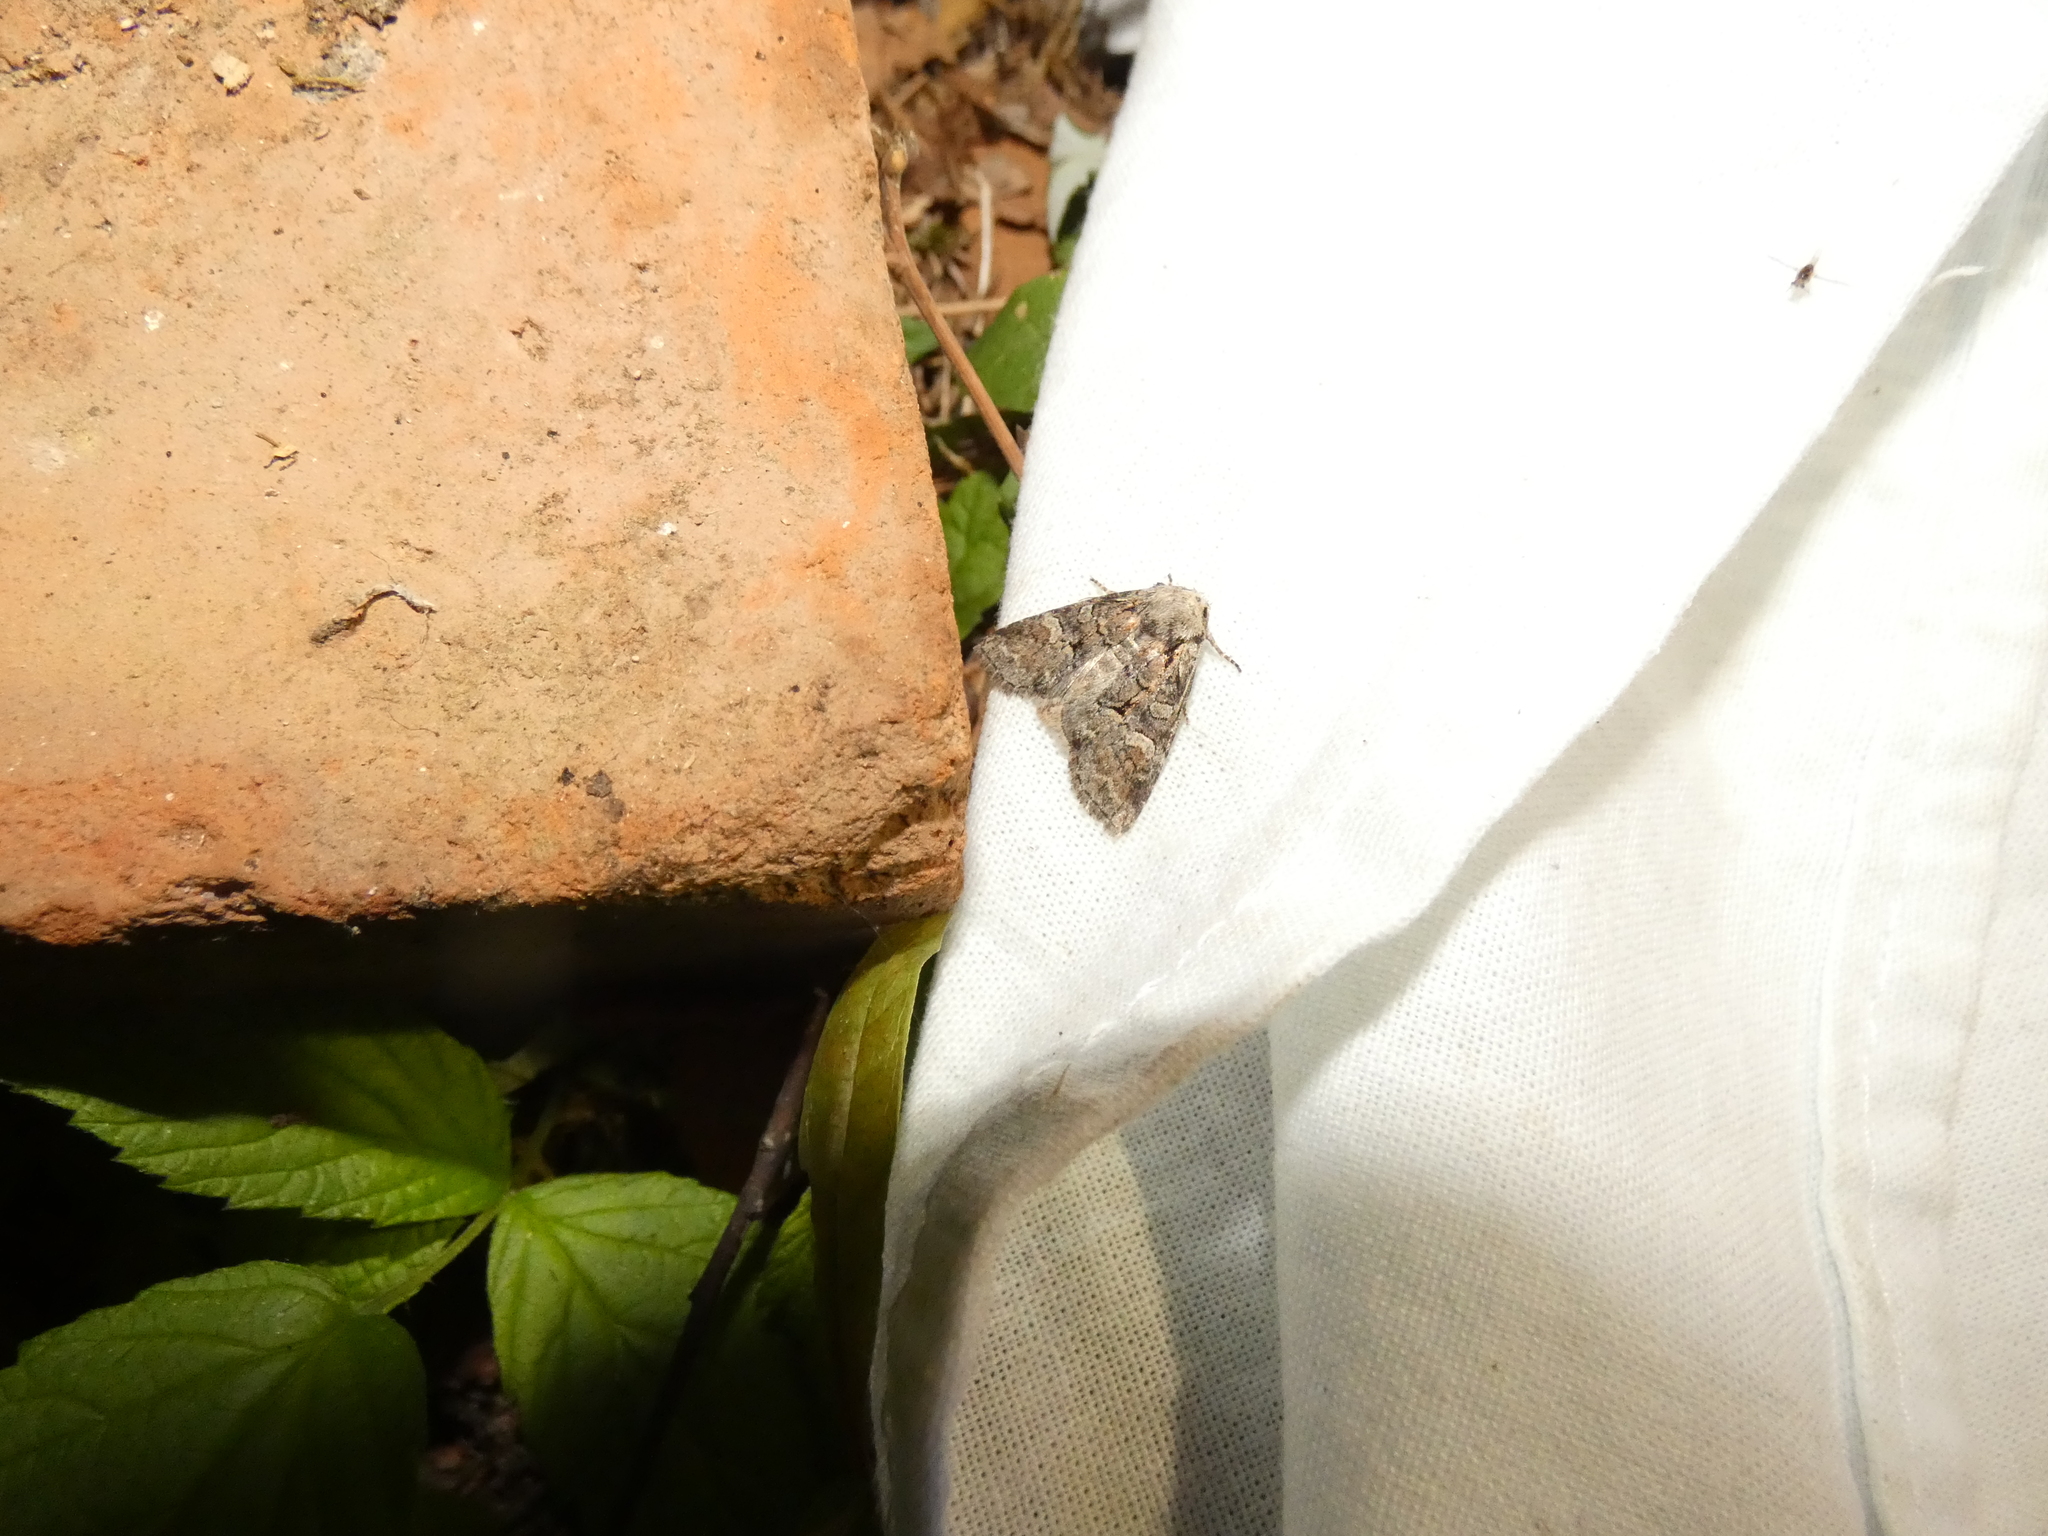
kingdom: Animalia
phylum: Arthropoda
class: Insecta
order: Lepidoptera
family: Noctuidae
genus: Brachylomia
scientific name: Brachylomia viminalis
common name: Minor shoulder-knot
